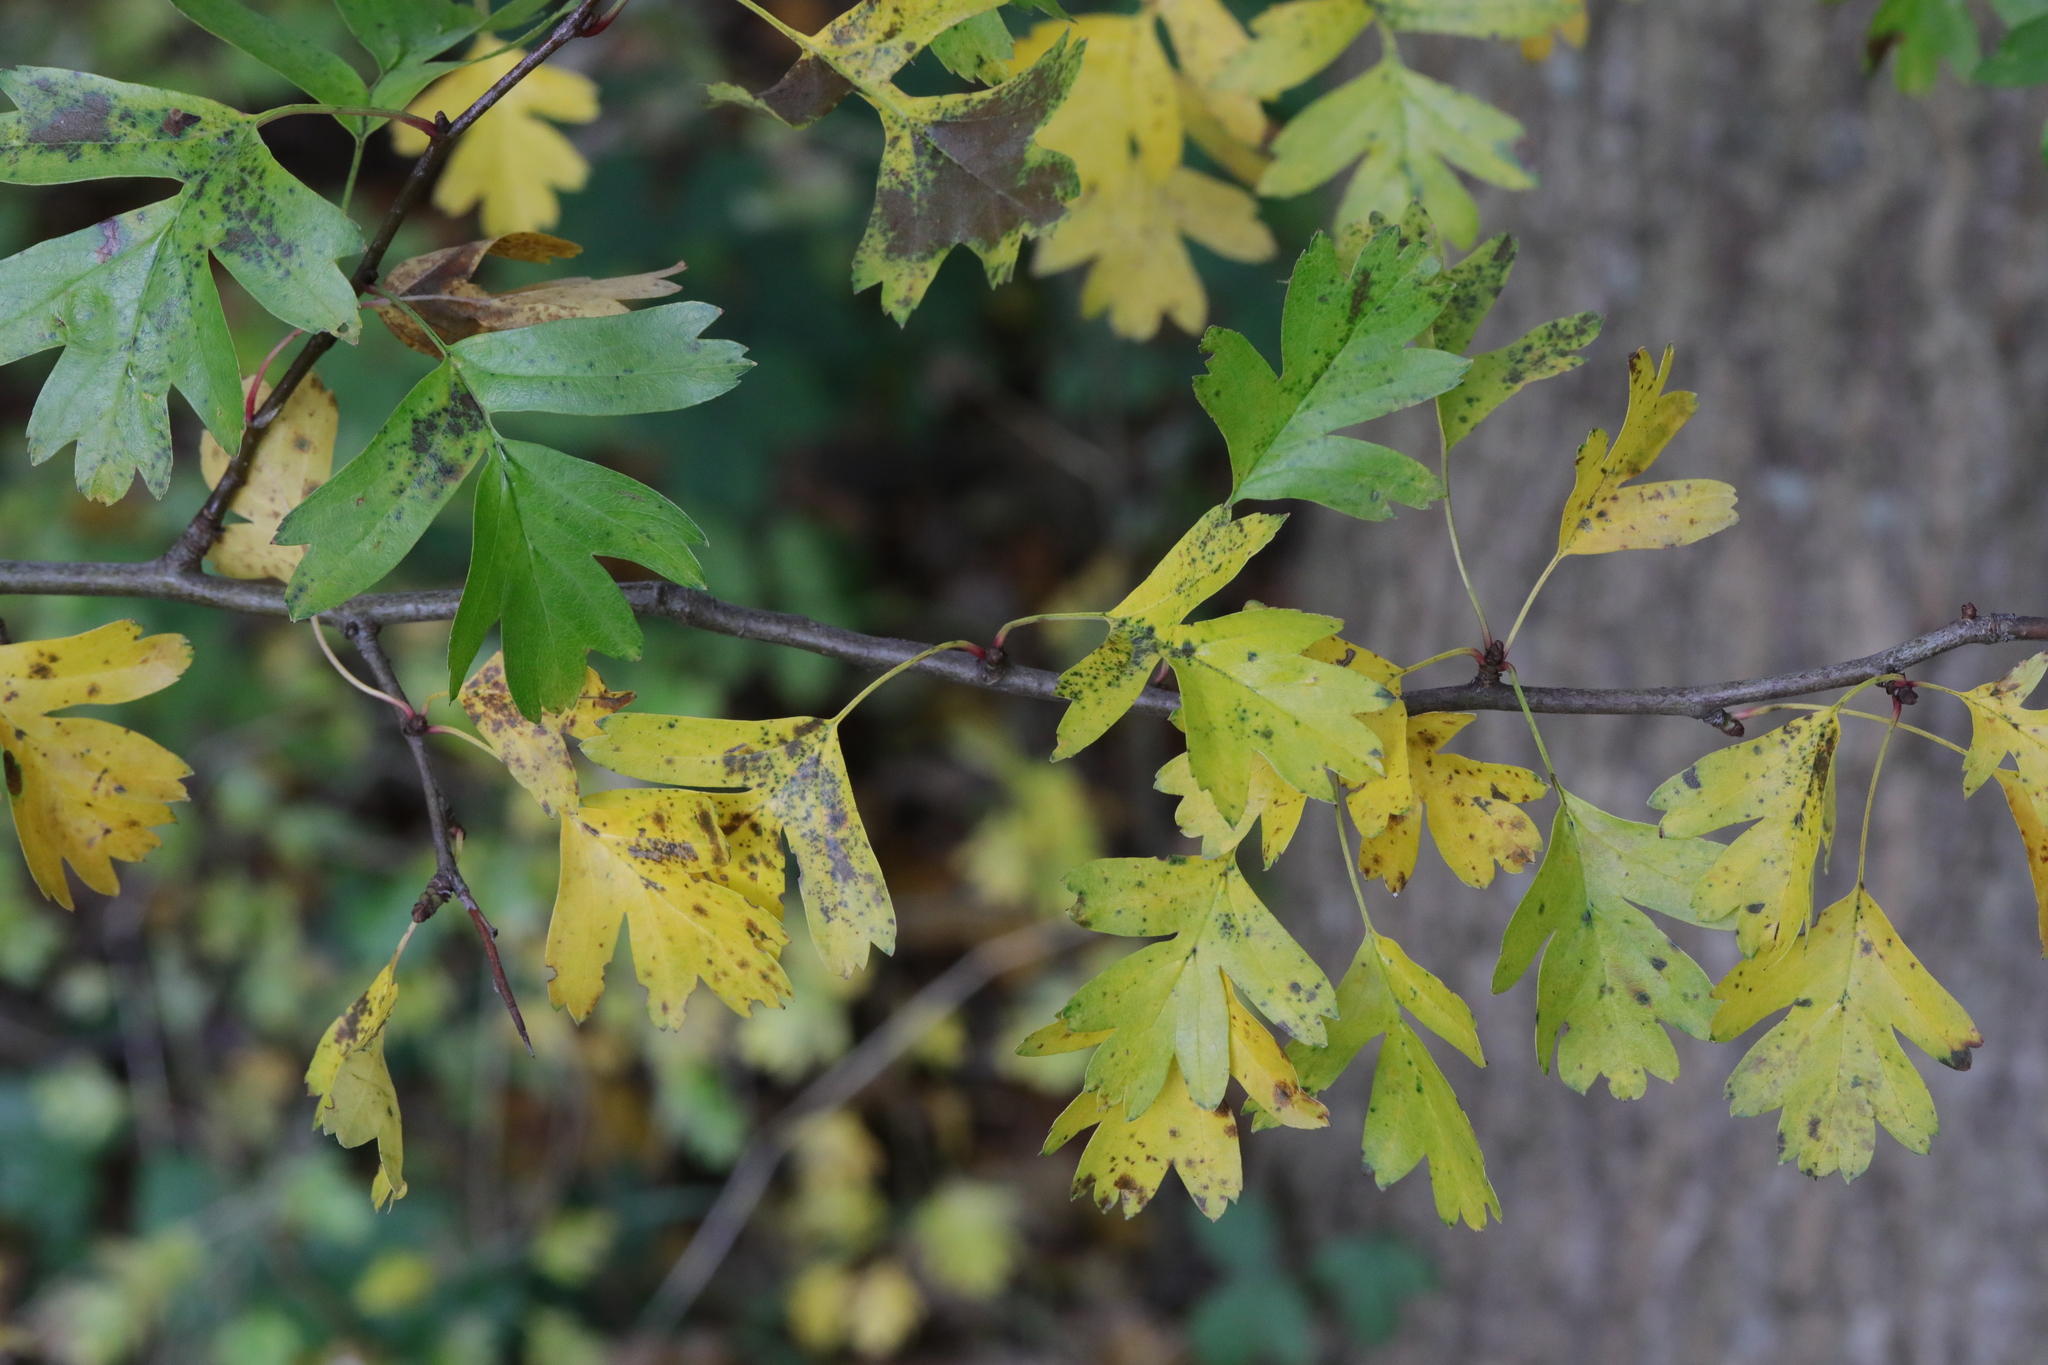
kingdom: Plantae
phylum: Tracheophyta
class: Magnoliopsida
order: Rosales
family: Rosaceae
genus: Crataegus
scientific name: Crataegus monogyna
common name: Hawthorn
